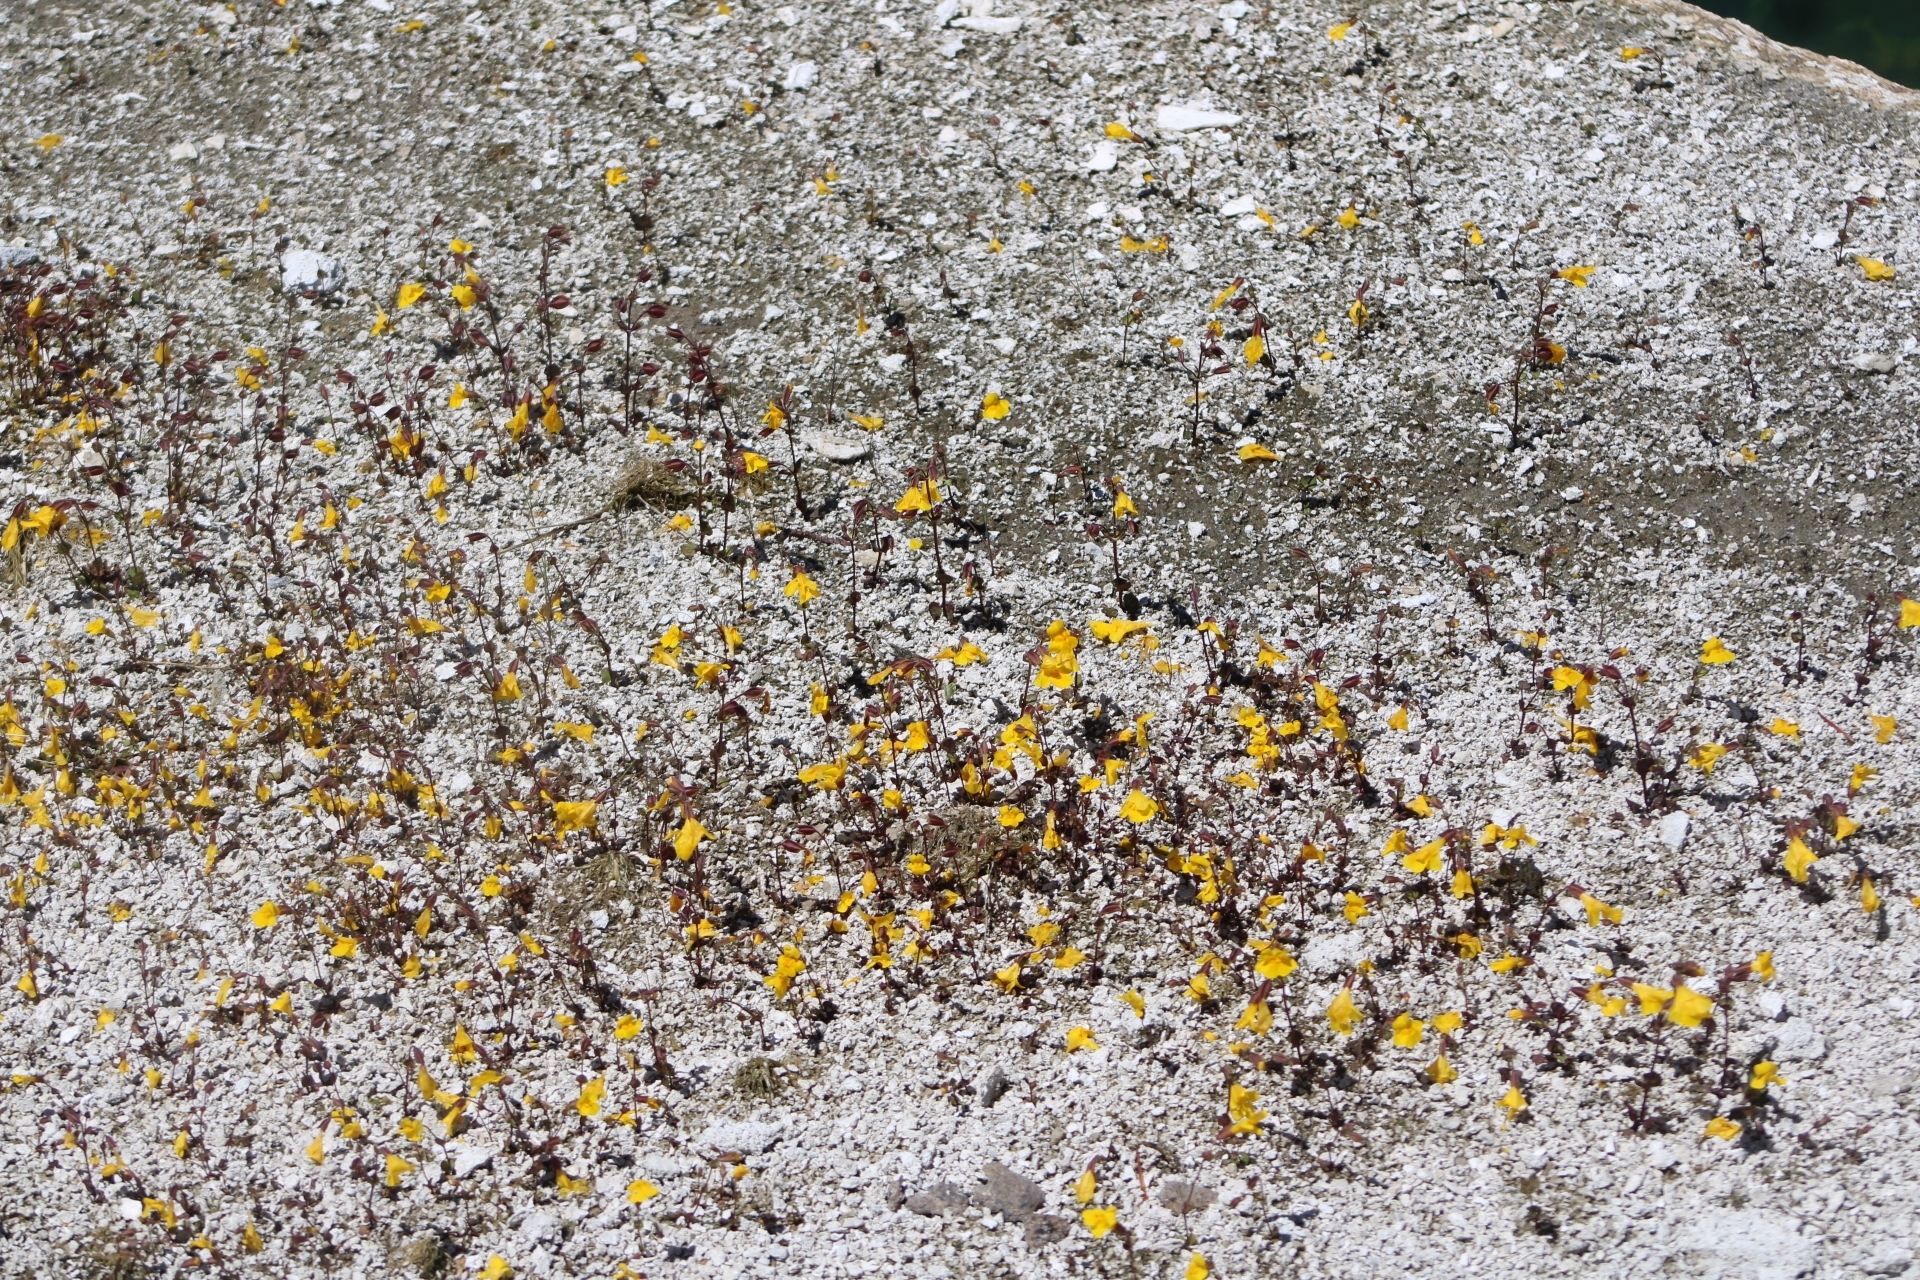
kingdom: Plantae
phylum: Tracheophyta
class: Magnoliopsida
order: Lamiales
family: Phrymaceae
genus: Erythranthe
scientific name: Erythranthe thermalis
